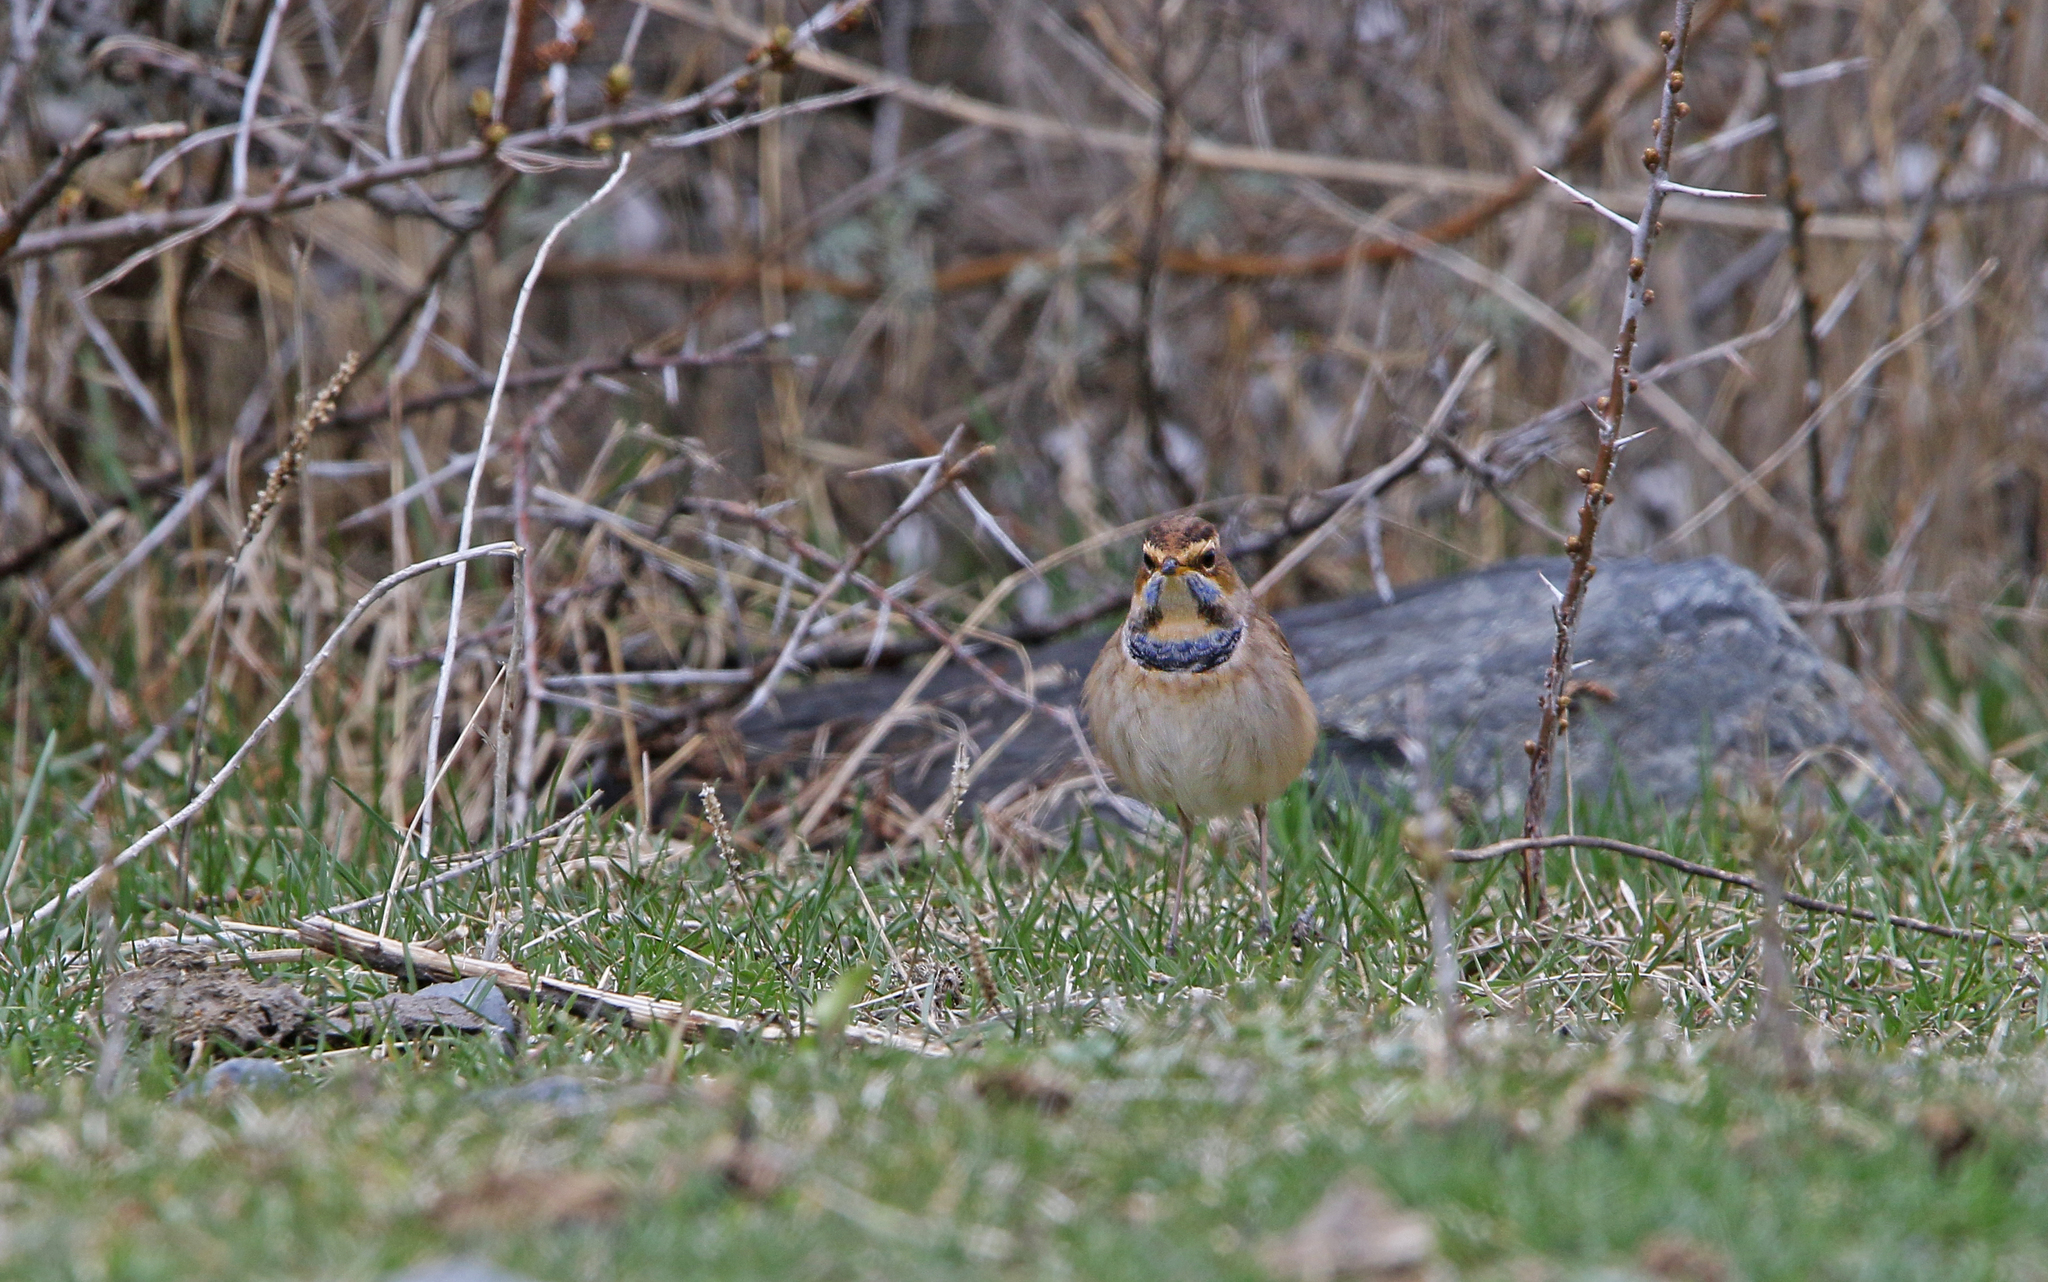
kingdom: Animalia
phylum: Chordata
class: Aves
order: Passeriformes
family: Muscicapidae
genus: Luscinia
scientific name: Luscinia svecica
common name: Bluethroat
